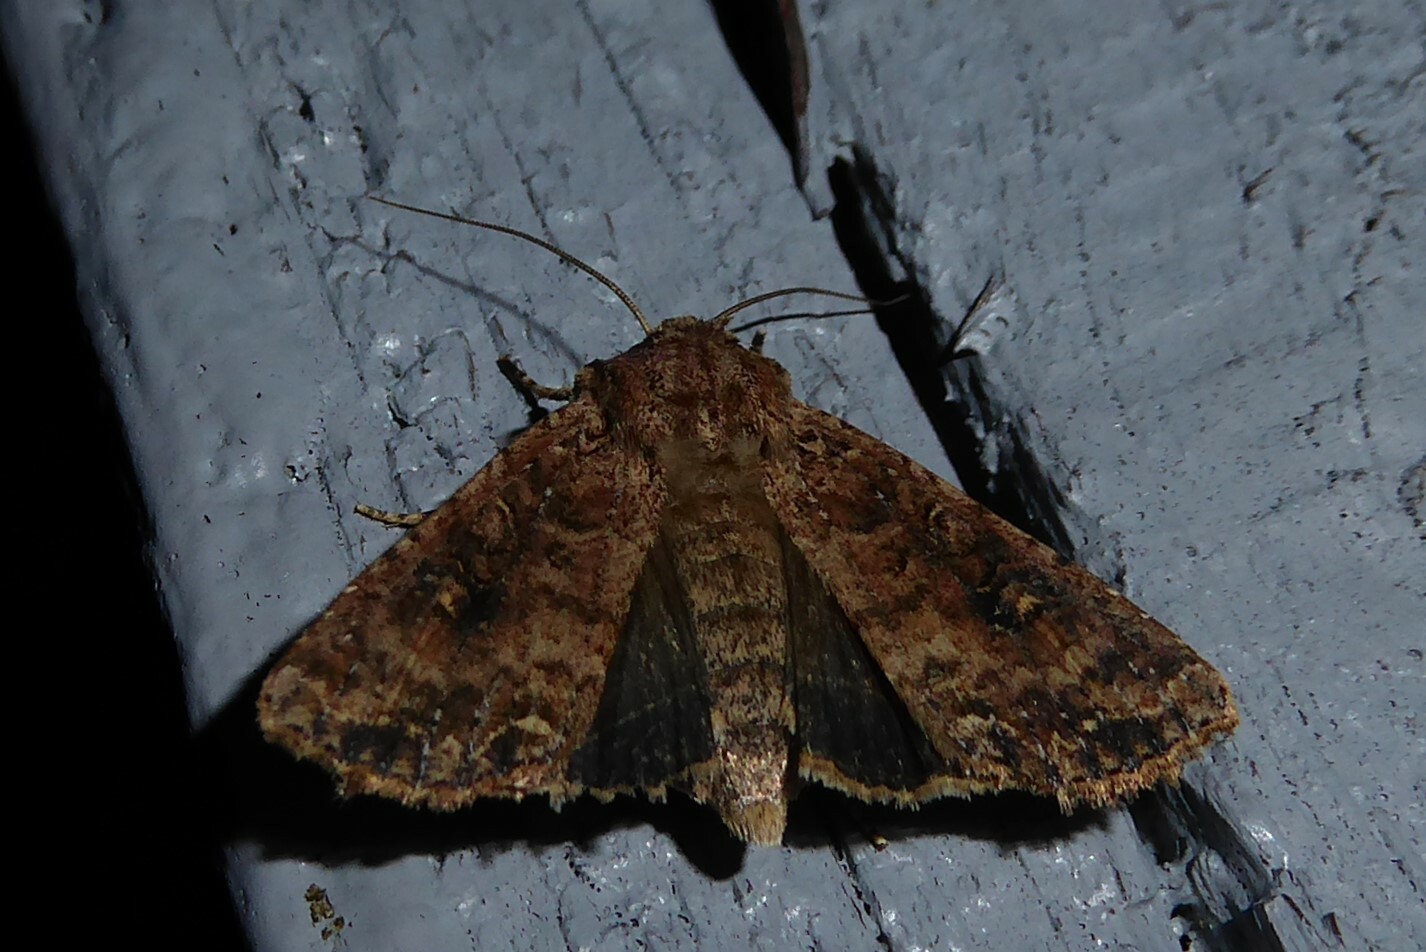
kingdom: Animalia
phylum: Arthropoda
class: Insecta
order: Lepidoptera
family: Noctuidae
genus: Ichneutica
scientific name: Ichneutica morosa
